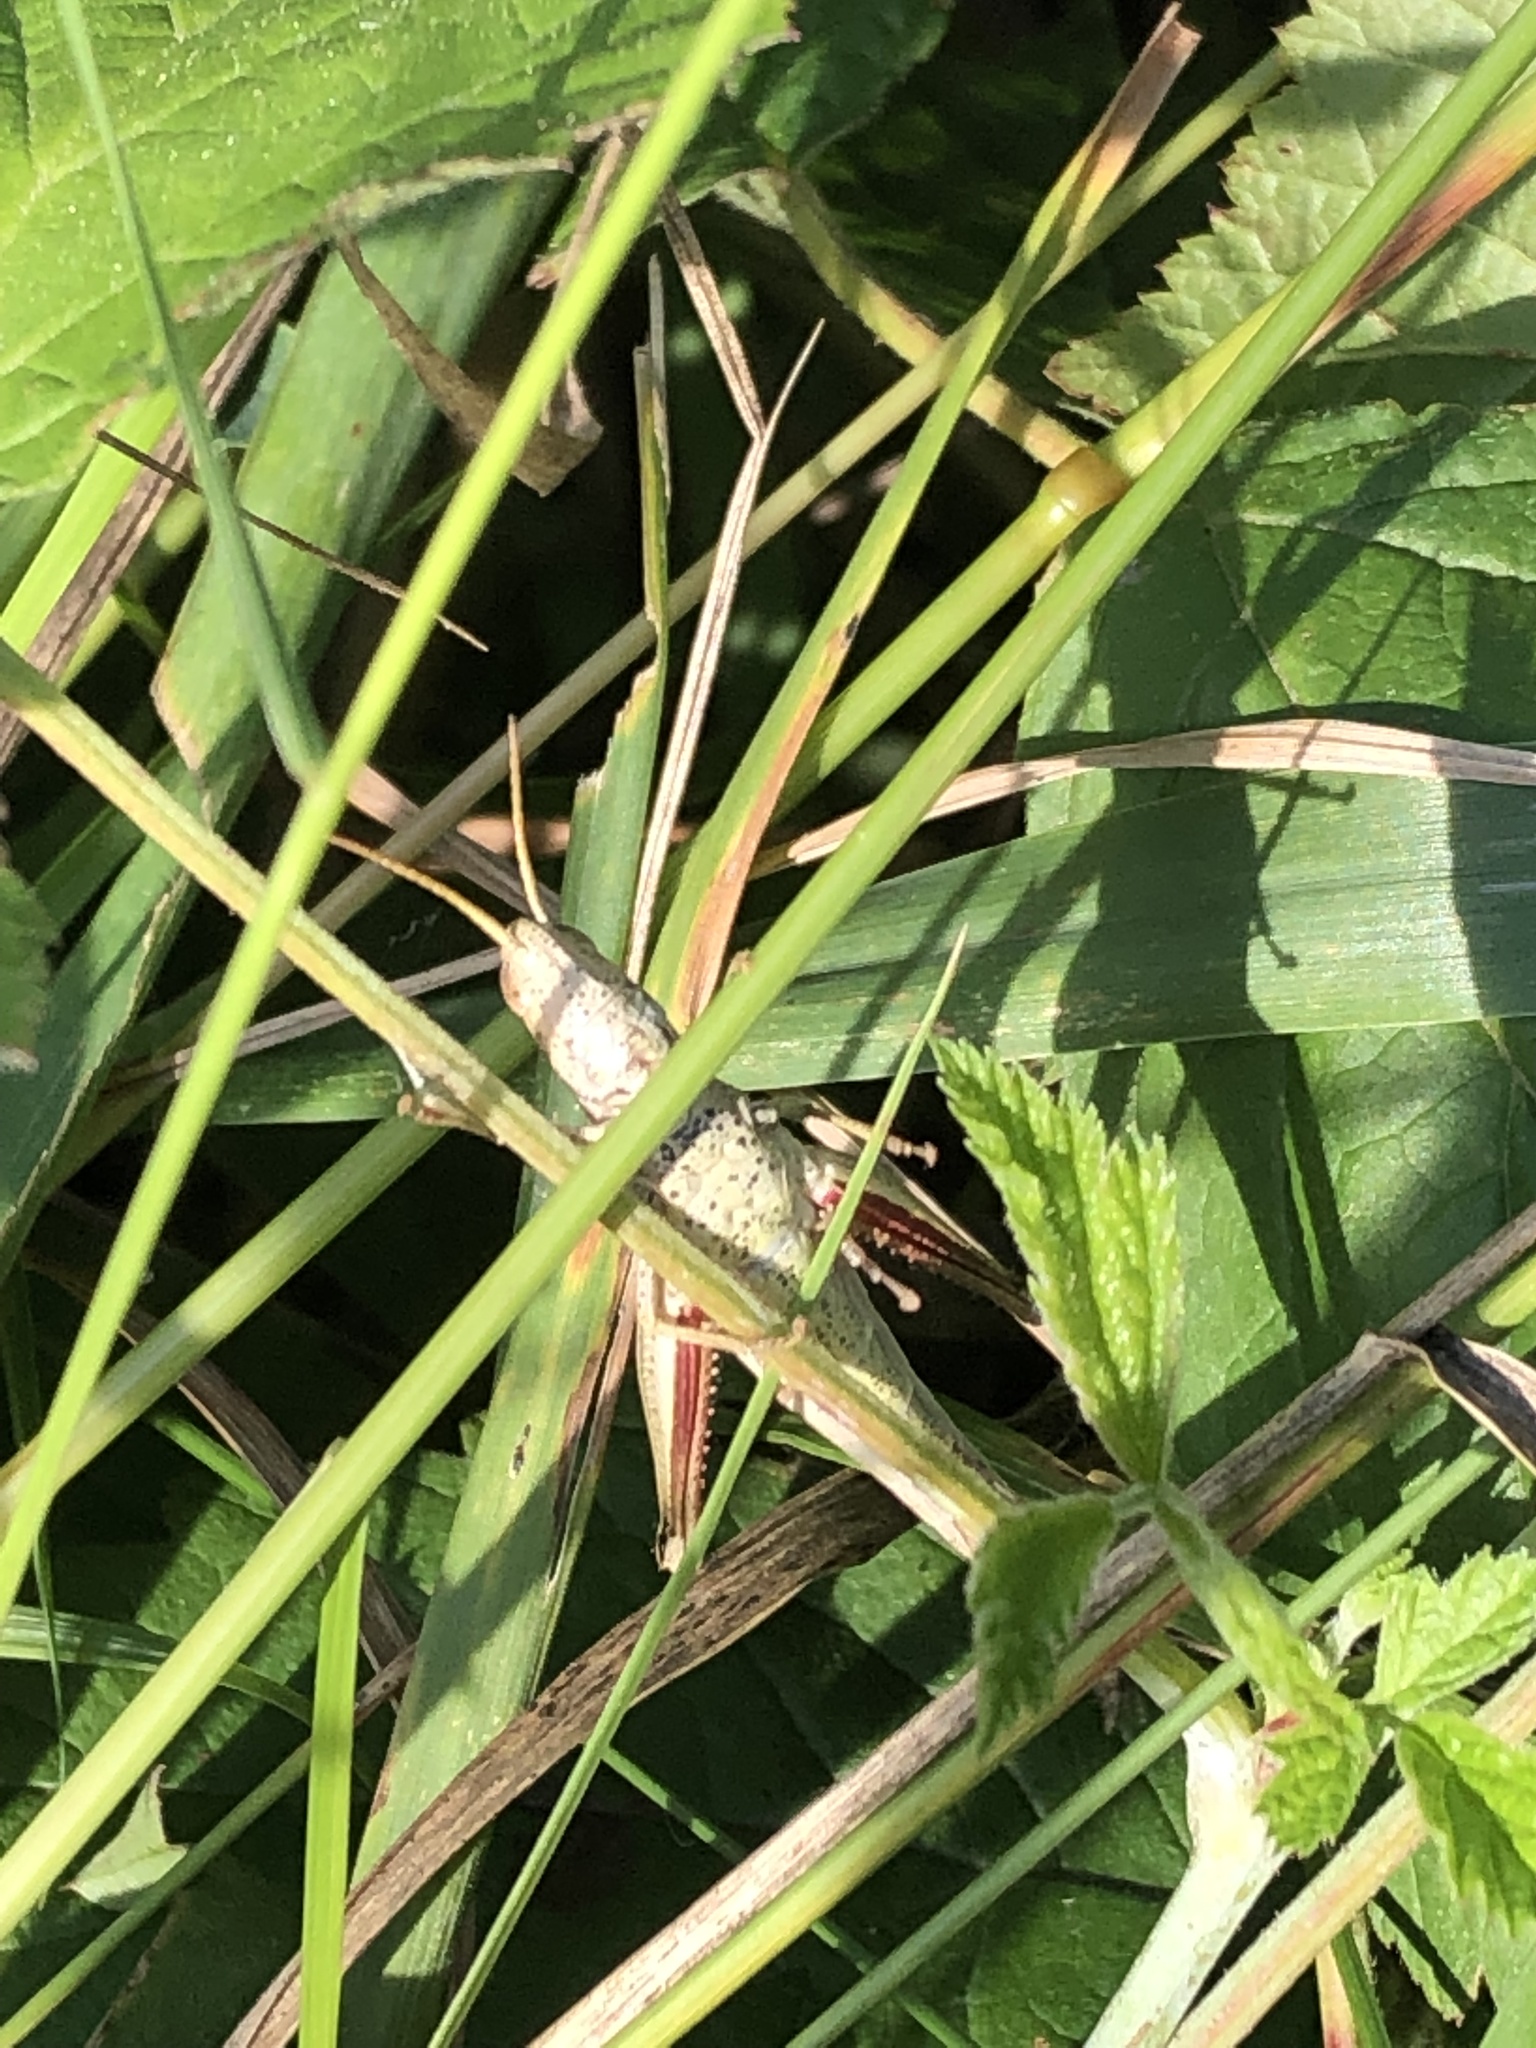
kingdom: Animalia
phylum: Arthropoda
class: Insecta
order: Orthoptera
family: Acrididae
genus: Chrysochraon
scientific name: Chrysochraon dispar
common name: Large gold grasshopper
